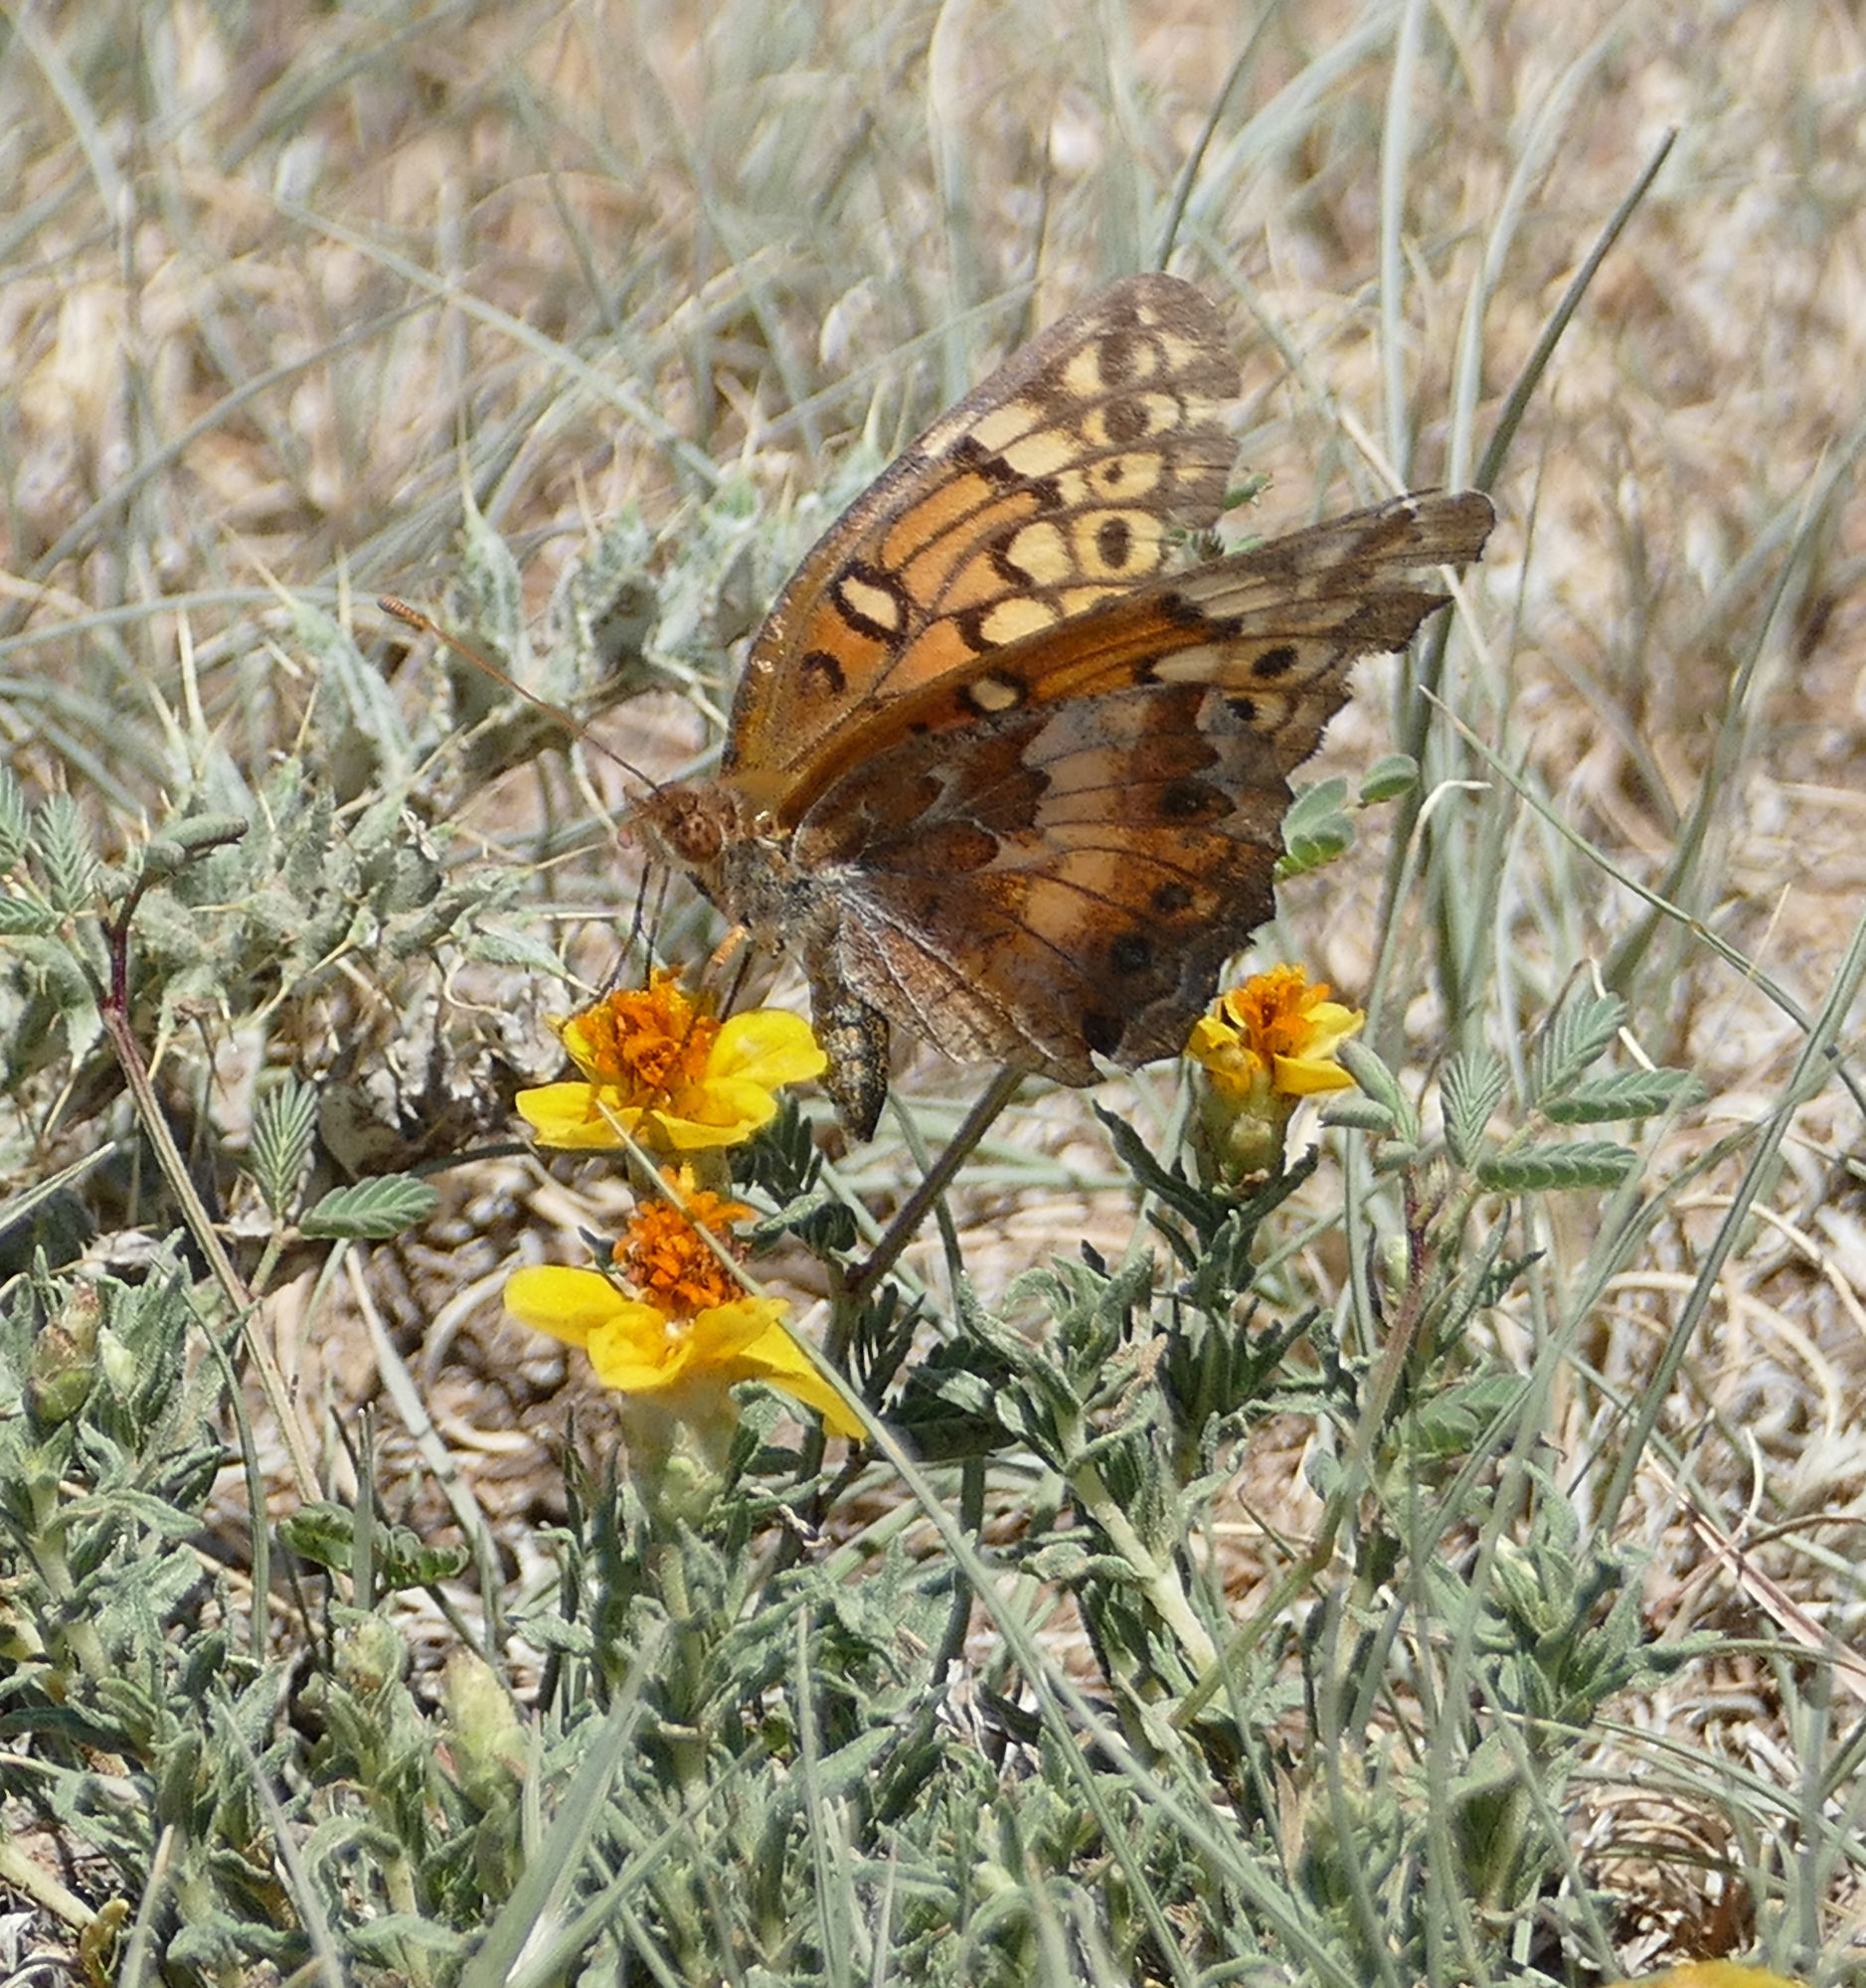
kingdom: Animalia
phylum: Arthropoda
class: Insecta
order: Lepidoptera
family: Nymphalidae
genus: Euptoieta
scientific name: Euptoieta claudia
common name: Variegated fritillary
